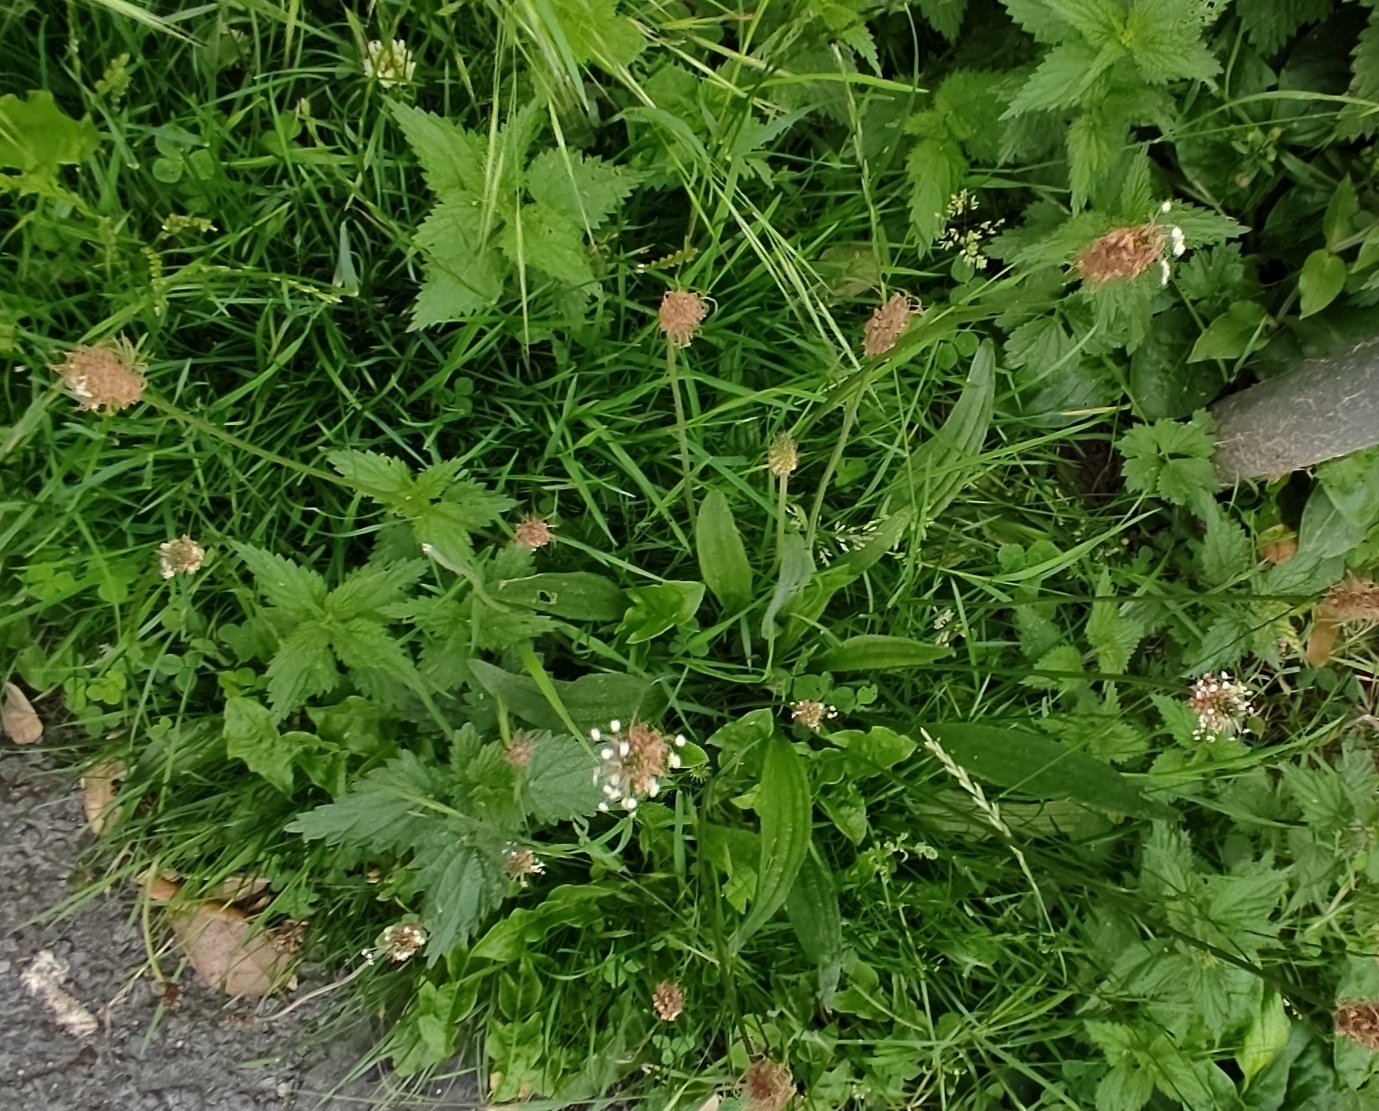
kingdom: Plantae
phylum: Tracheophyta
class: Magnoliopsida
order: Lamiales
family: Plantaginaceae
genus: Plantago
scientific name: Plantago lanceolata
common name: Ribwort plantain
